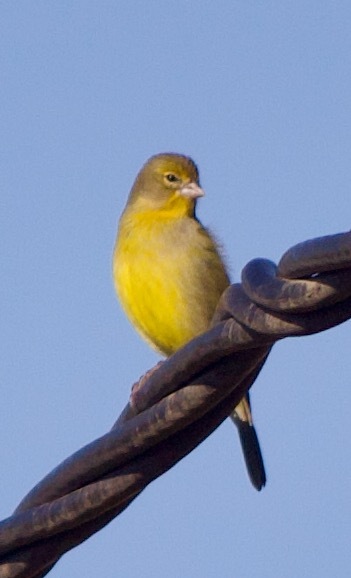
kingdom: Animalia
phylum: Chordata
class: Aves
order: Passeriformes
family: Thraupidae
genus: Sicalis
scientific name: Sicalis luteola
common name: Grassland yellow-finch
